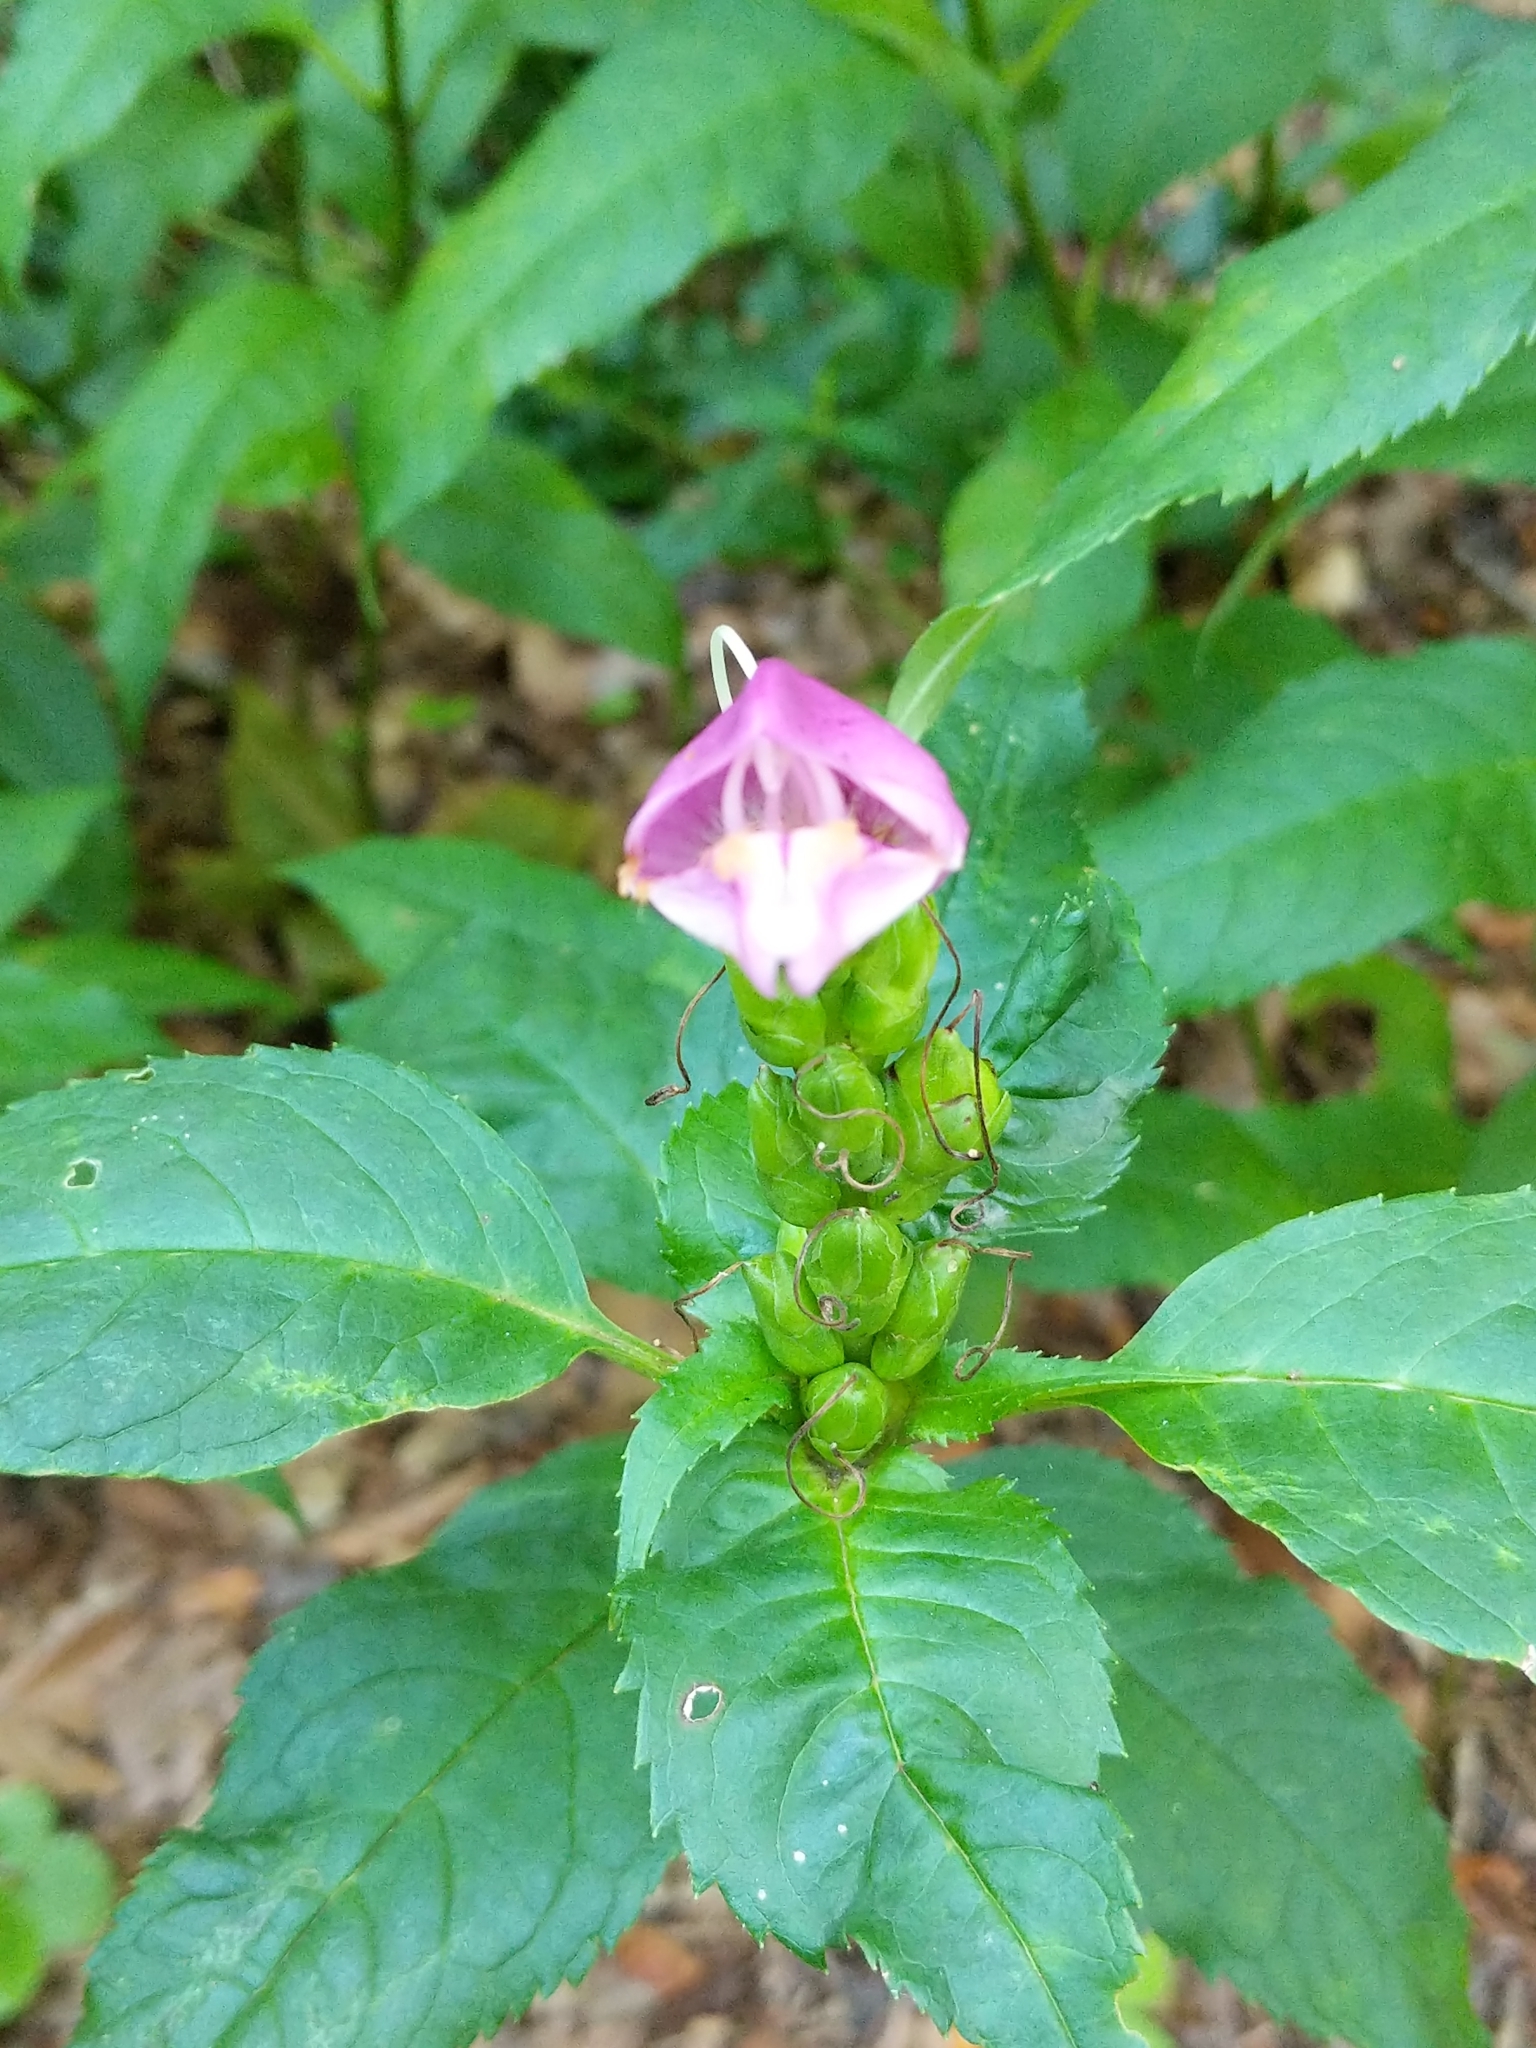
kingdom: Plantae
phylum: Tracheophyta
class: Magnoliopsida
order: Lamiales
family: Plantaginaceae
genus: Chelone
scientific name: Chelone lyonii
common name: Pink turtlehead
